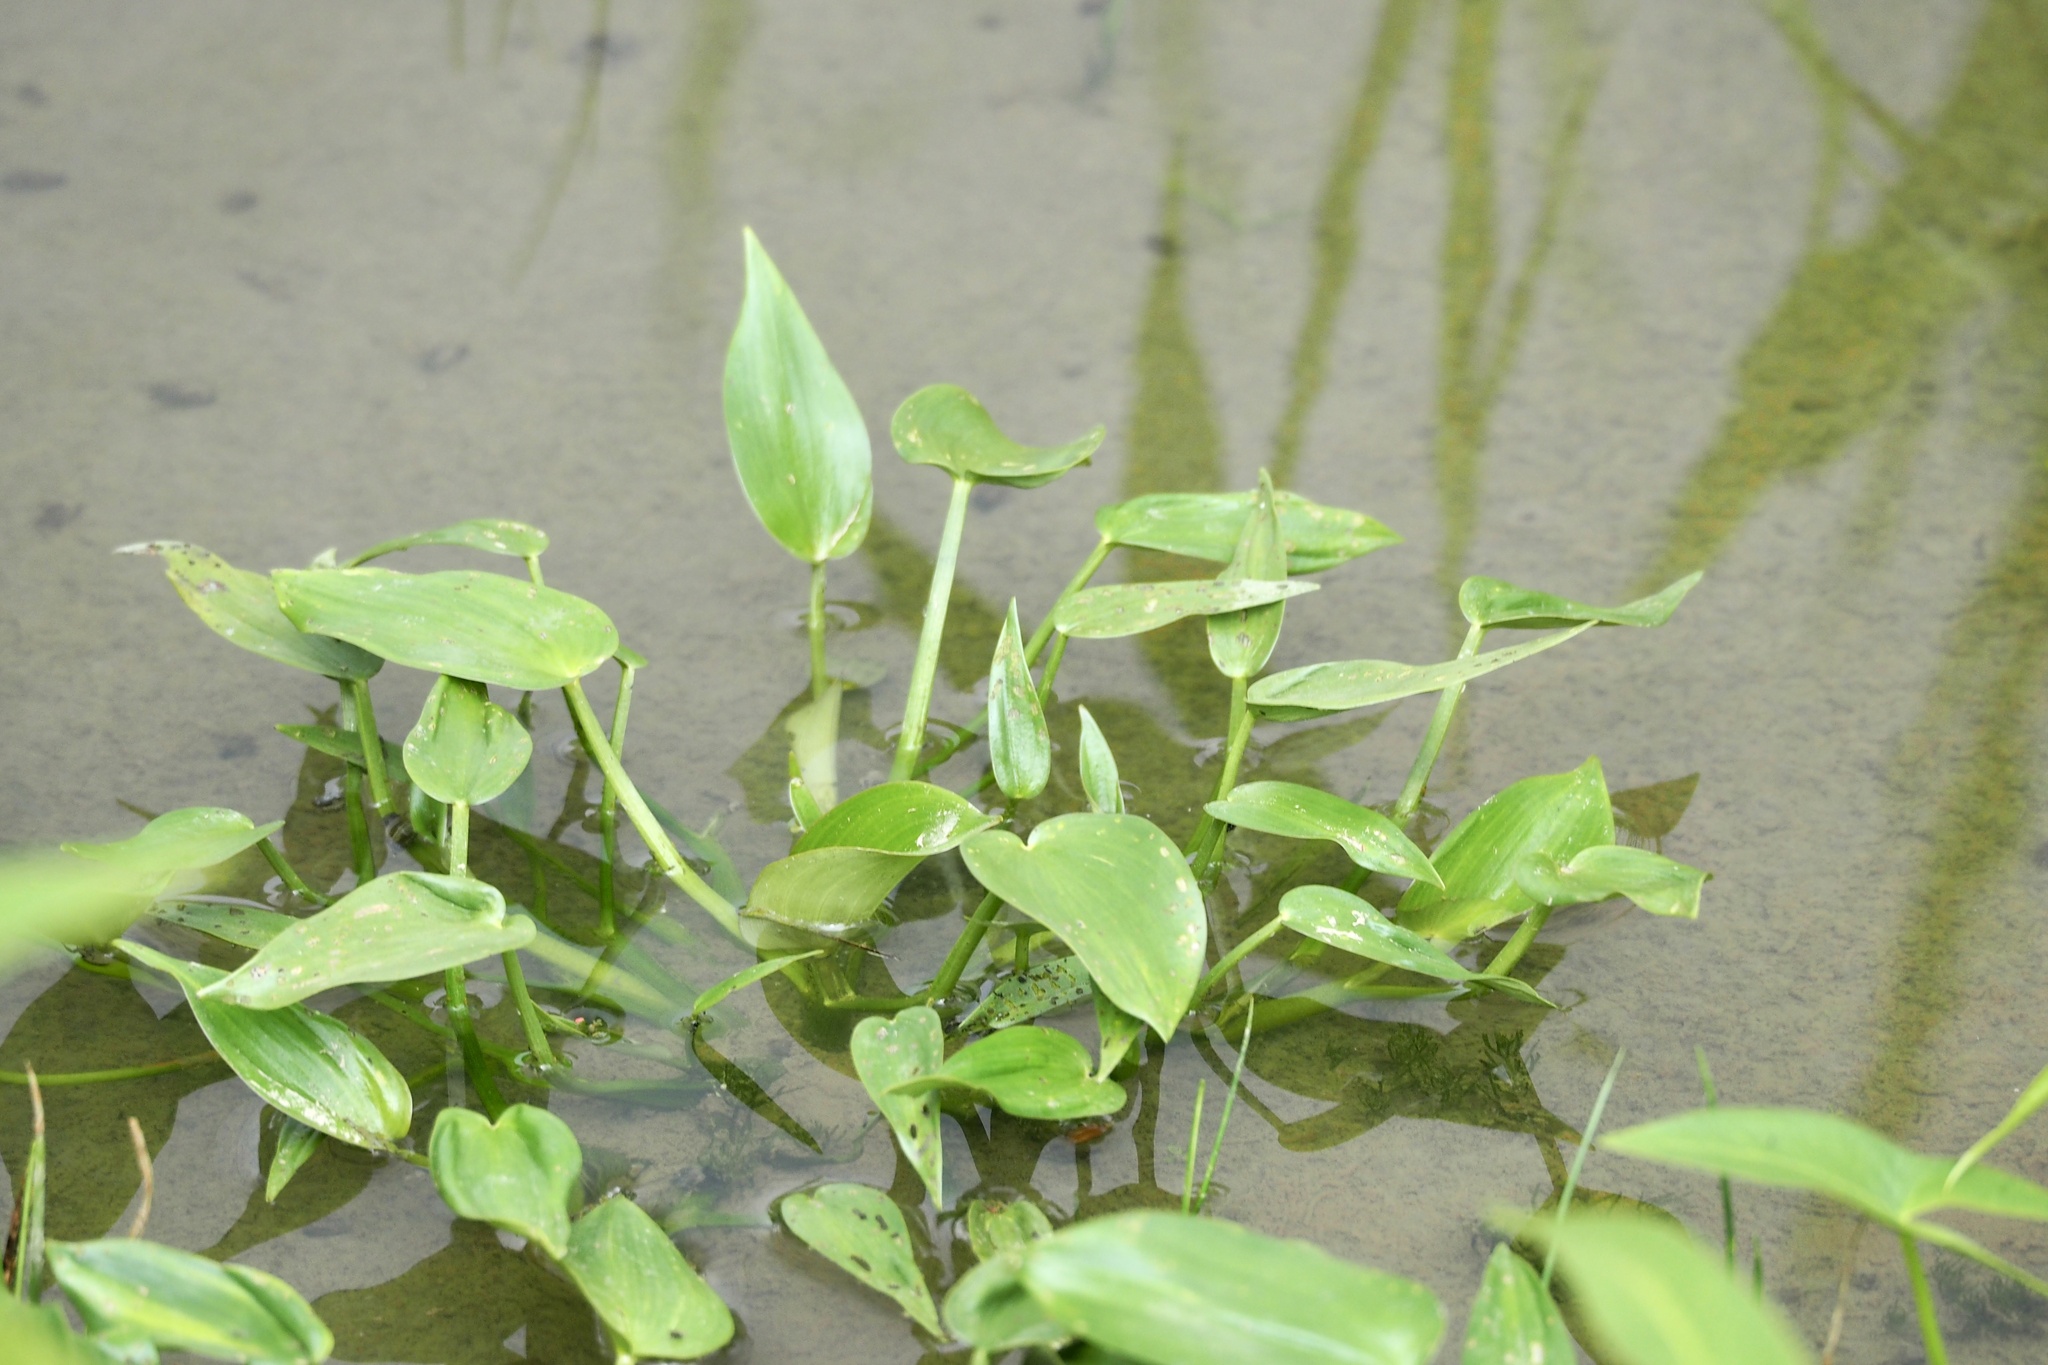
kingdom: Plantae
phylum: Tracheophyta
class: Liliopsida
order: Commelinales
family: Pontederiaceae
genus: Pontederia
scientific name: Pontederia vaginalis
